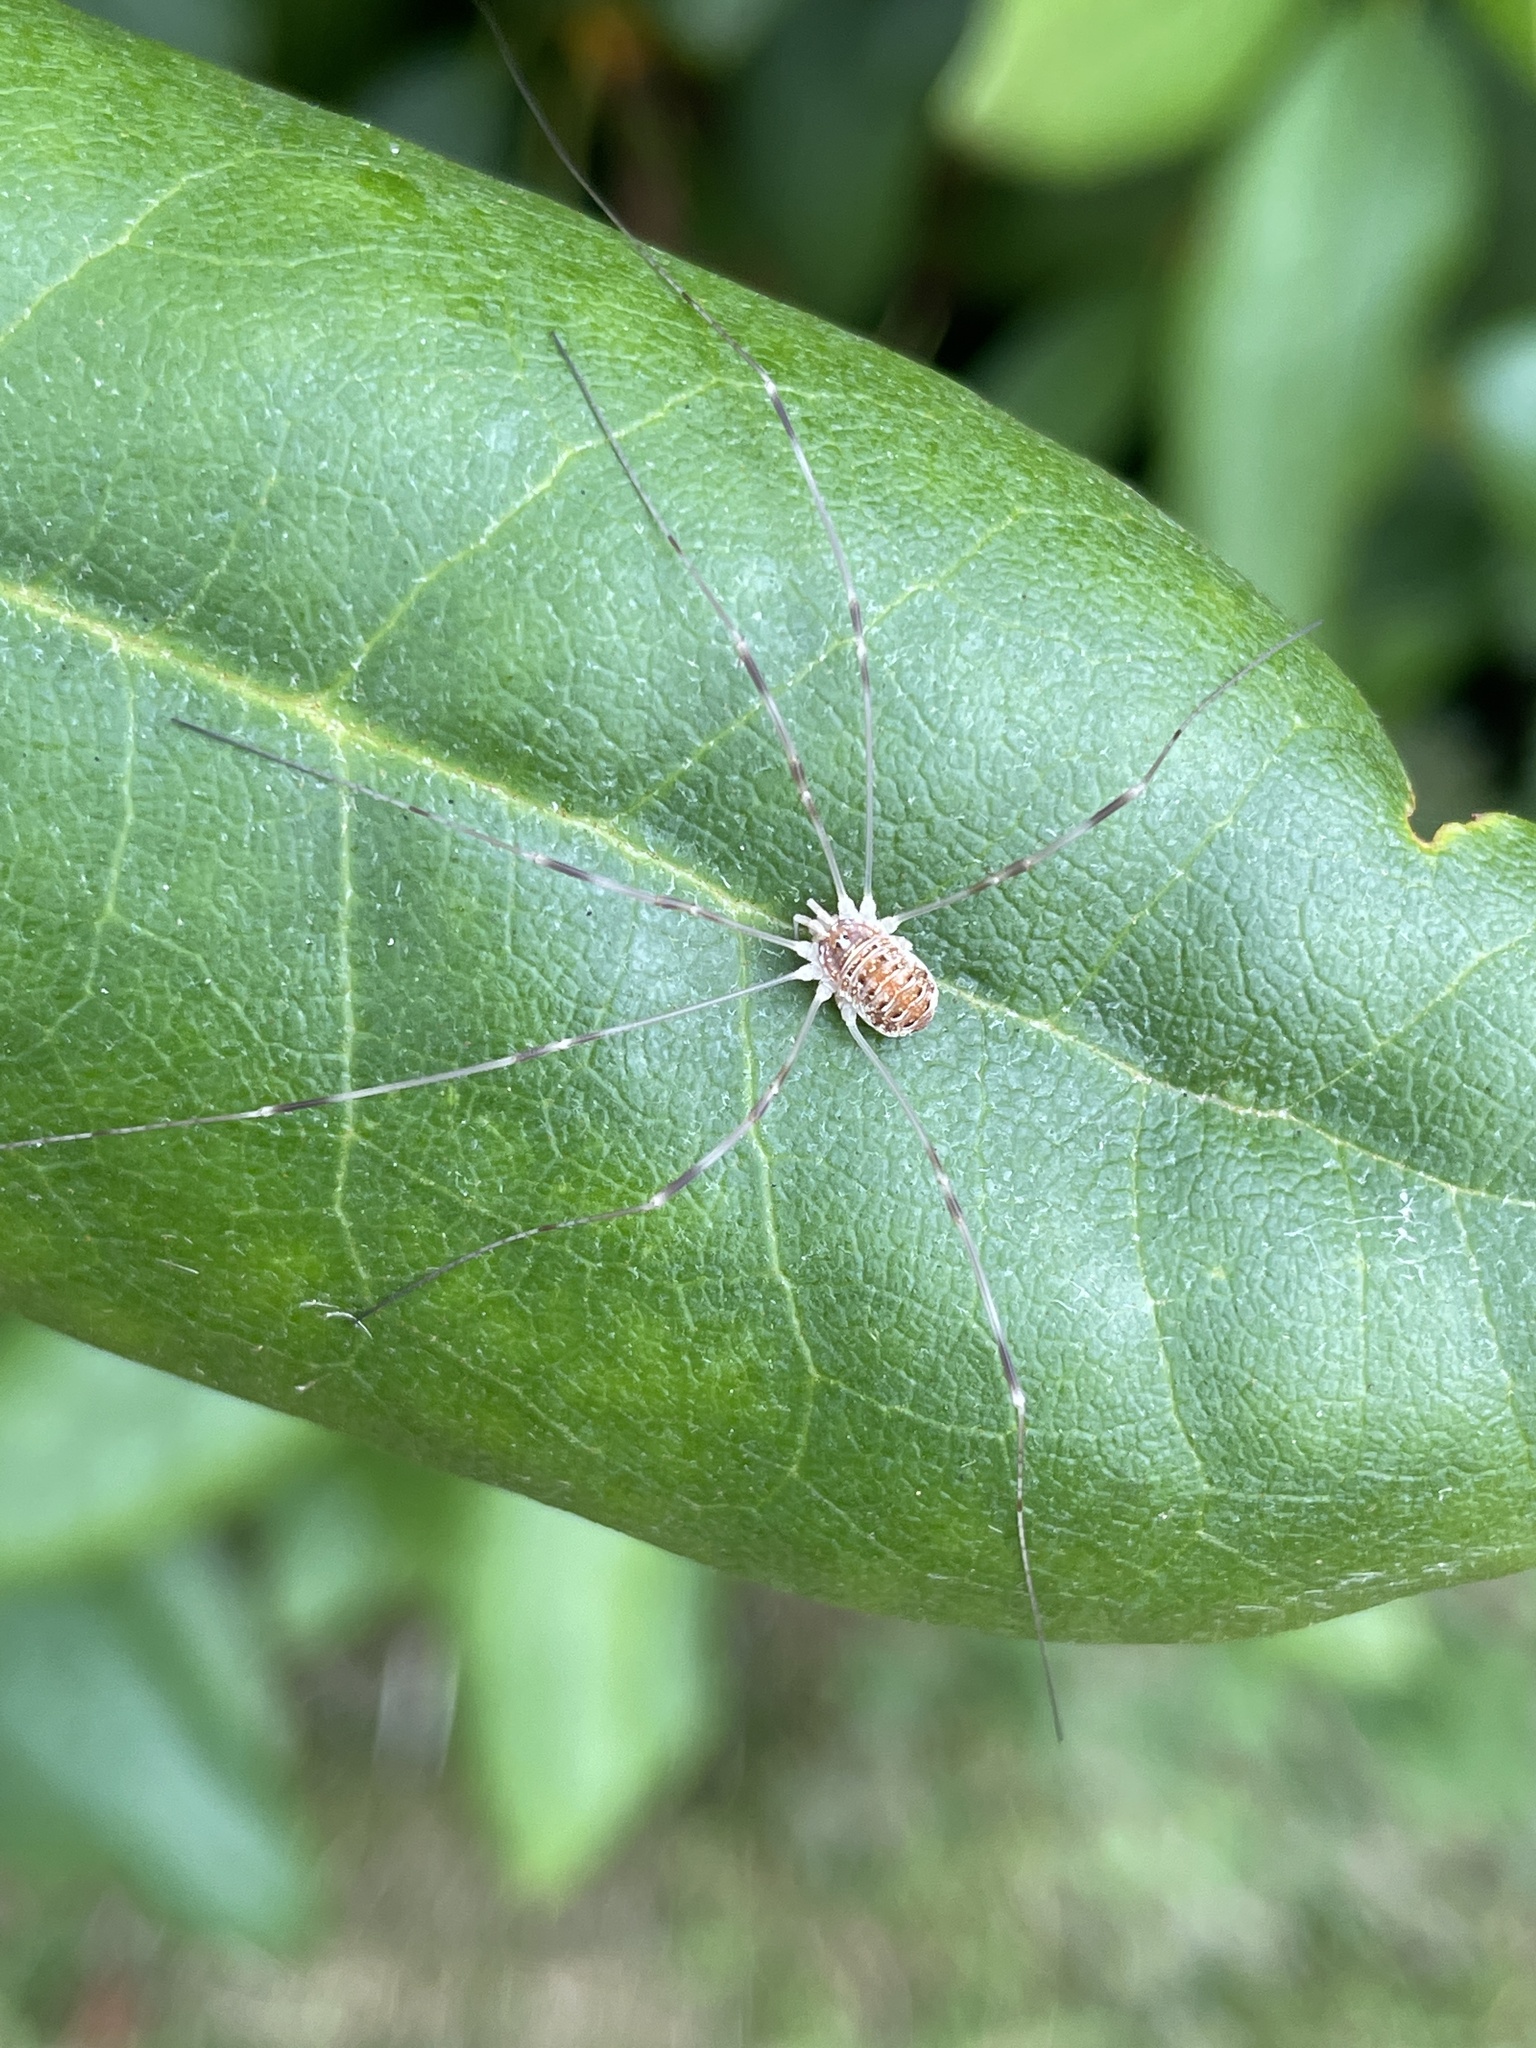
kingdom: Animalia
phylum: Arthropoda
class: Arachnida
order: Opiliones
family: Phalangiidae
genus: Opilio
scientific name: Opilio canestrinii
